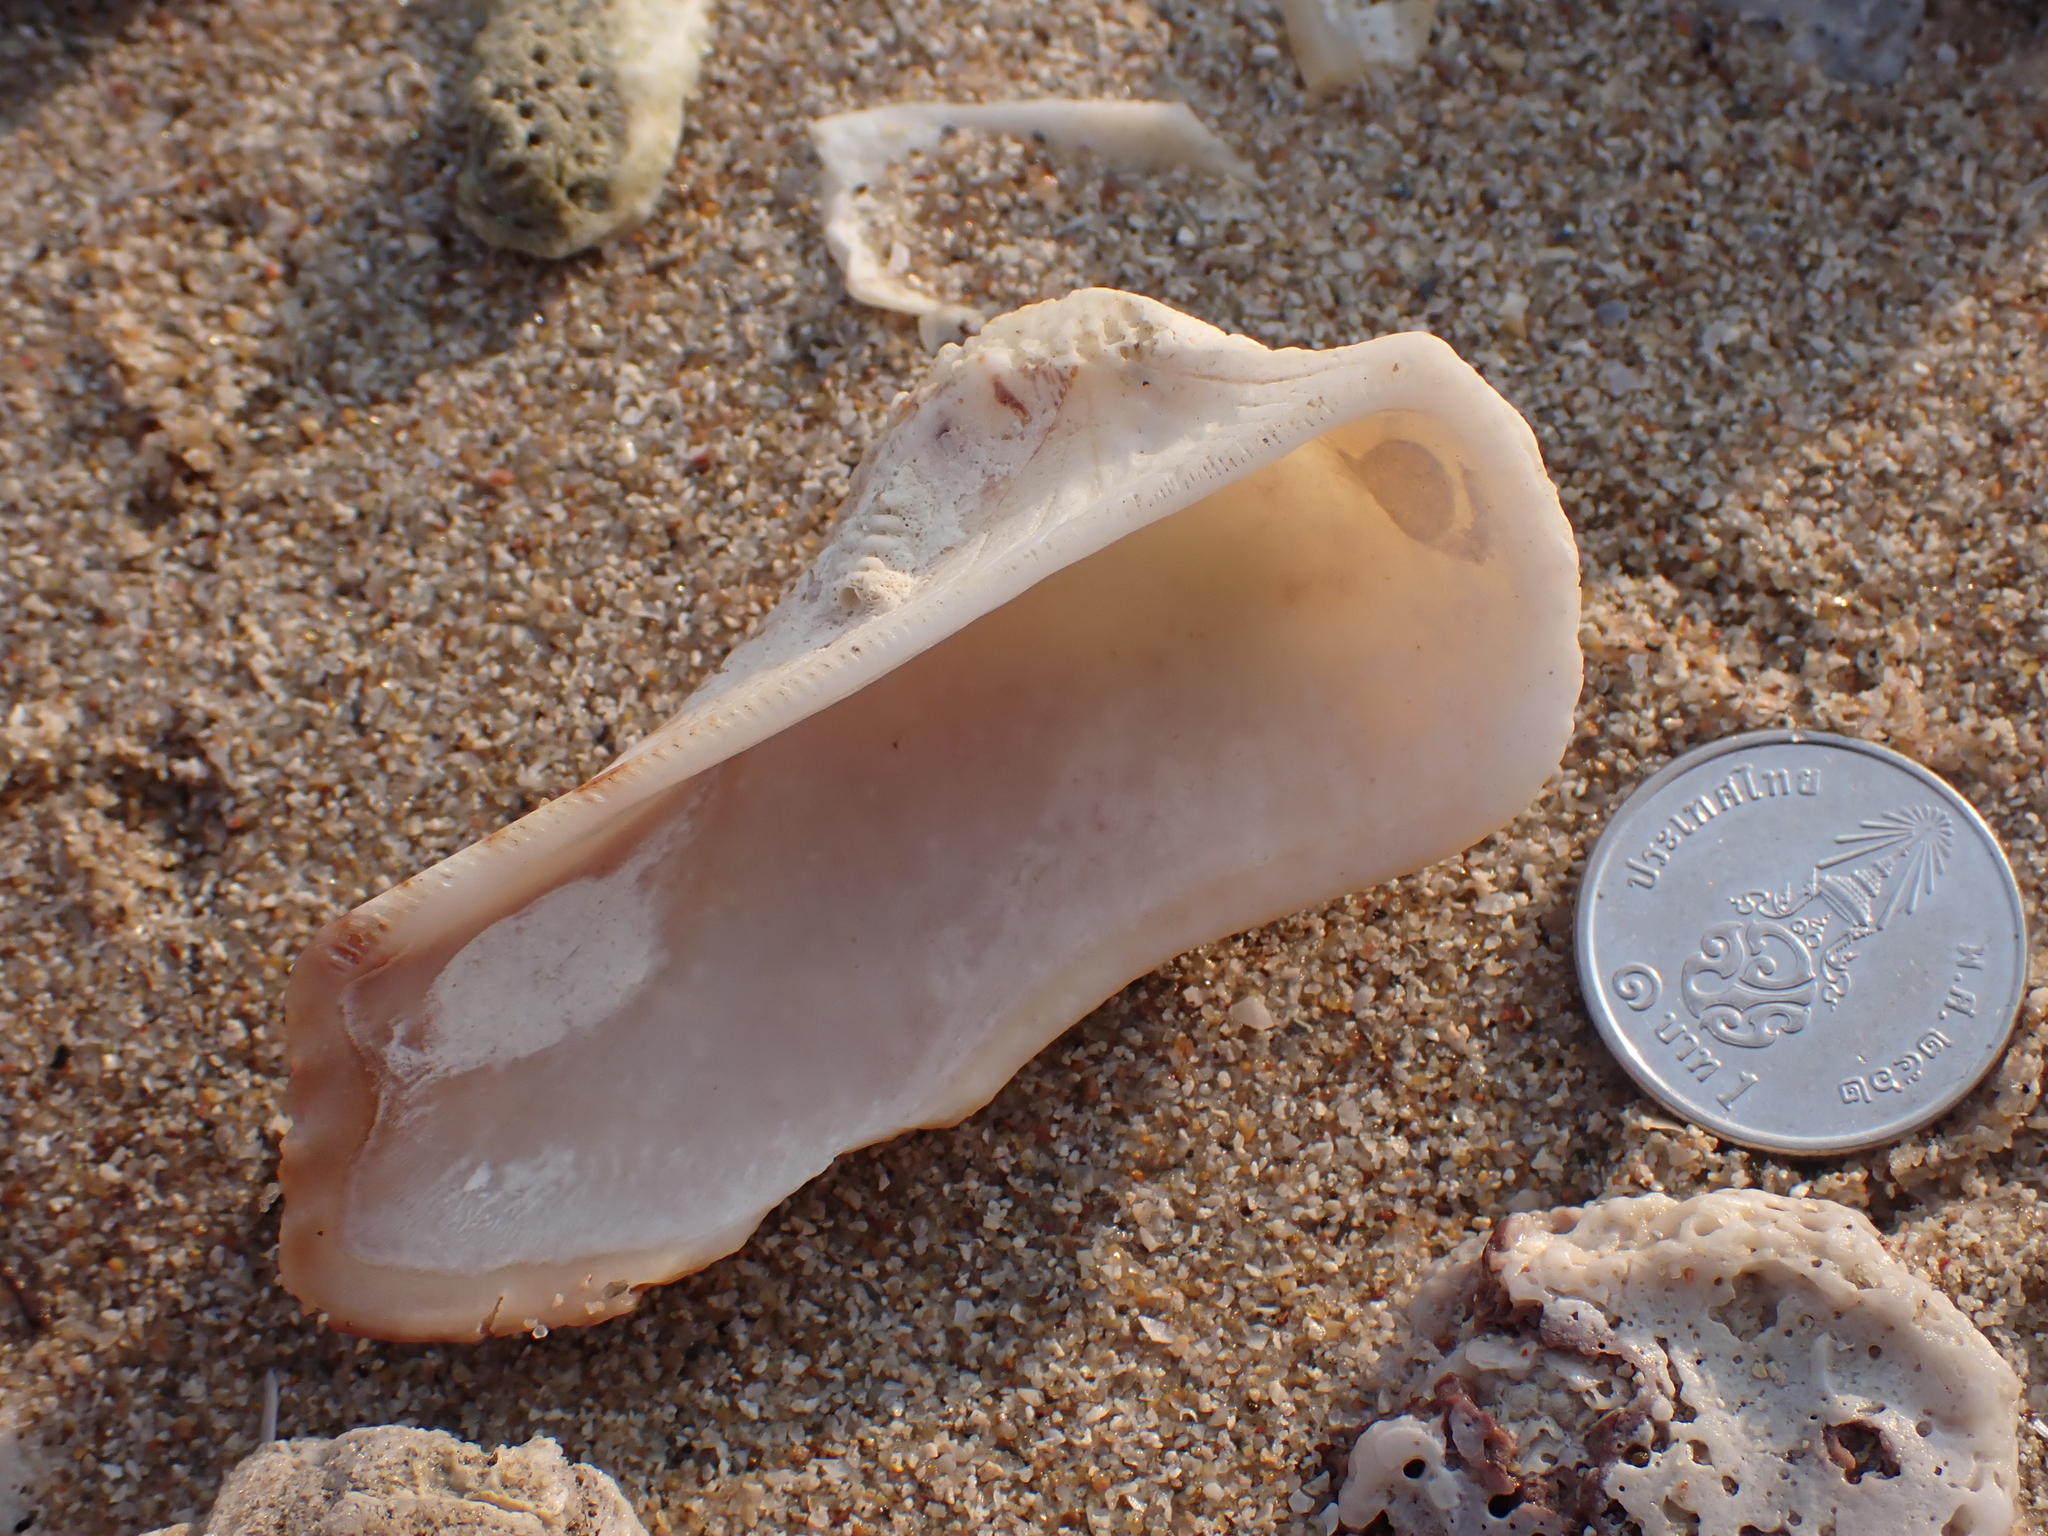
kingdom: Animalia
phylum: Mollusca
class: Bivalvia
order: Arcida
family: Arcidae
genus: Lamarcka
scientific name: Lamarcka ventricosa
